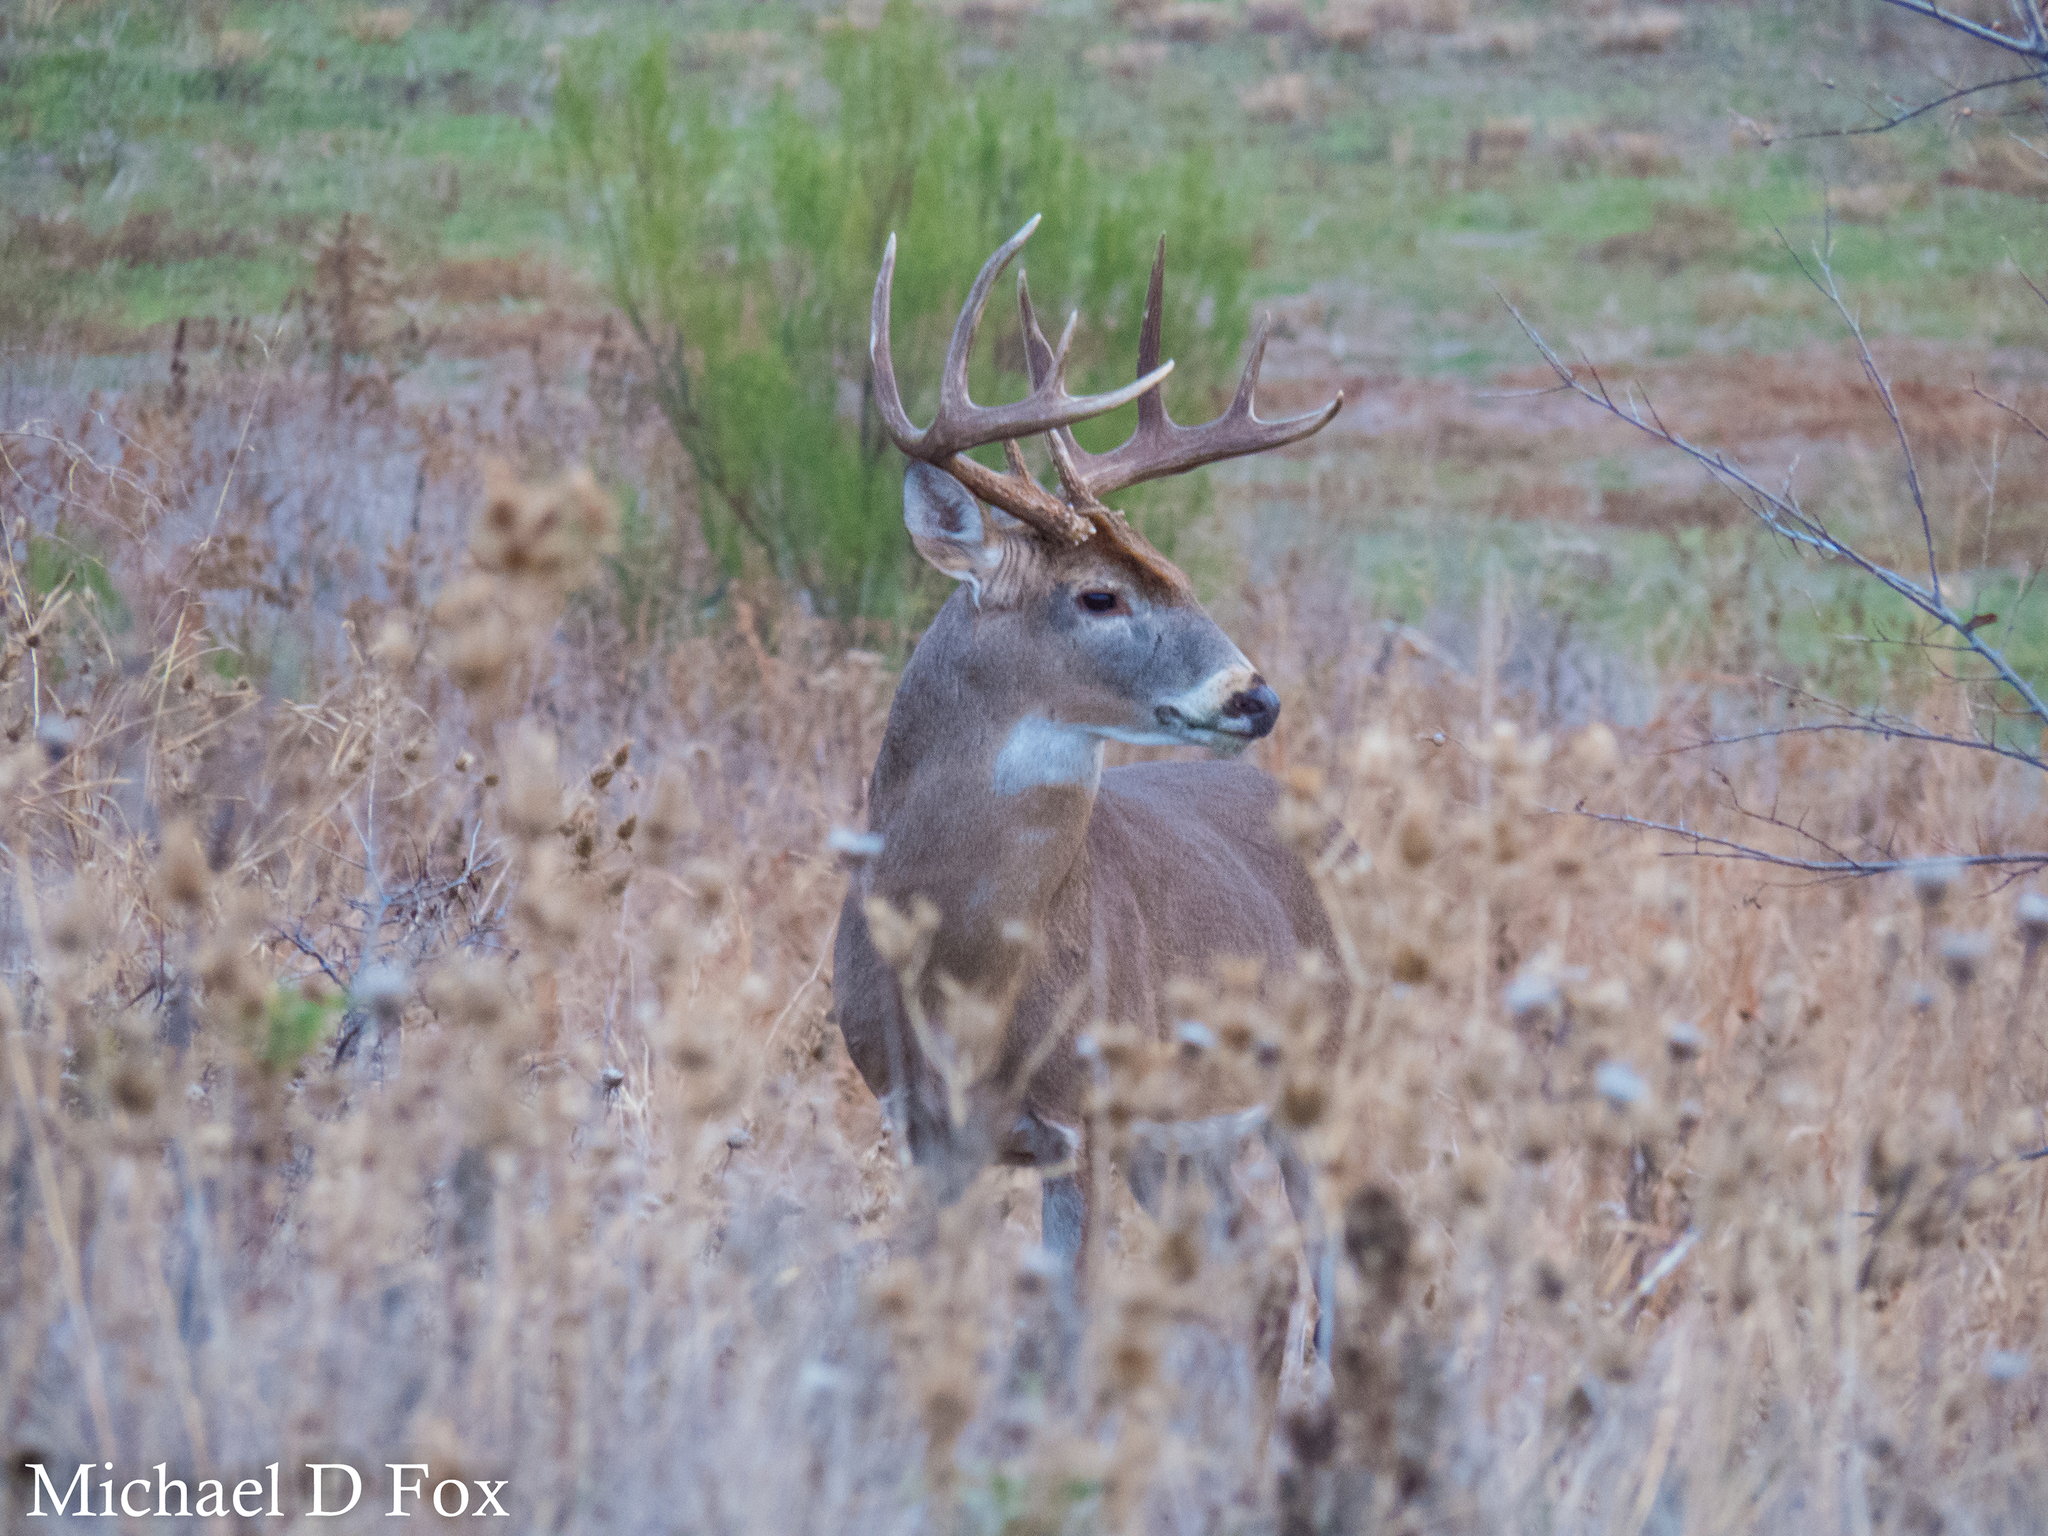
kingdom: Animalia
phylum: Chordata
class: Mammalia
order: Artiodactyla
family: Cervidae
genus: Odocoileus
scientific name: Odocoileus virginianus
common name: White-tailed deer
